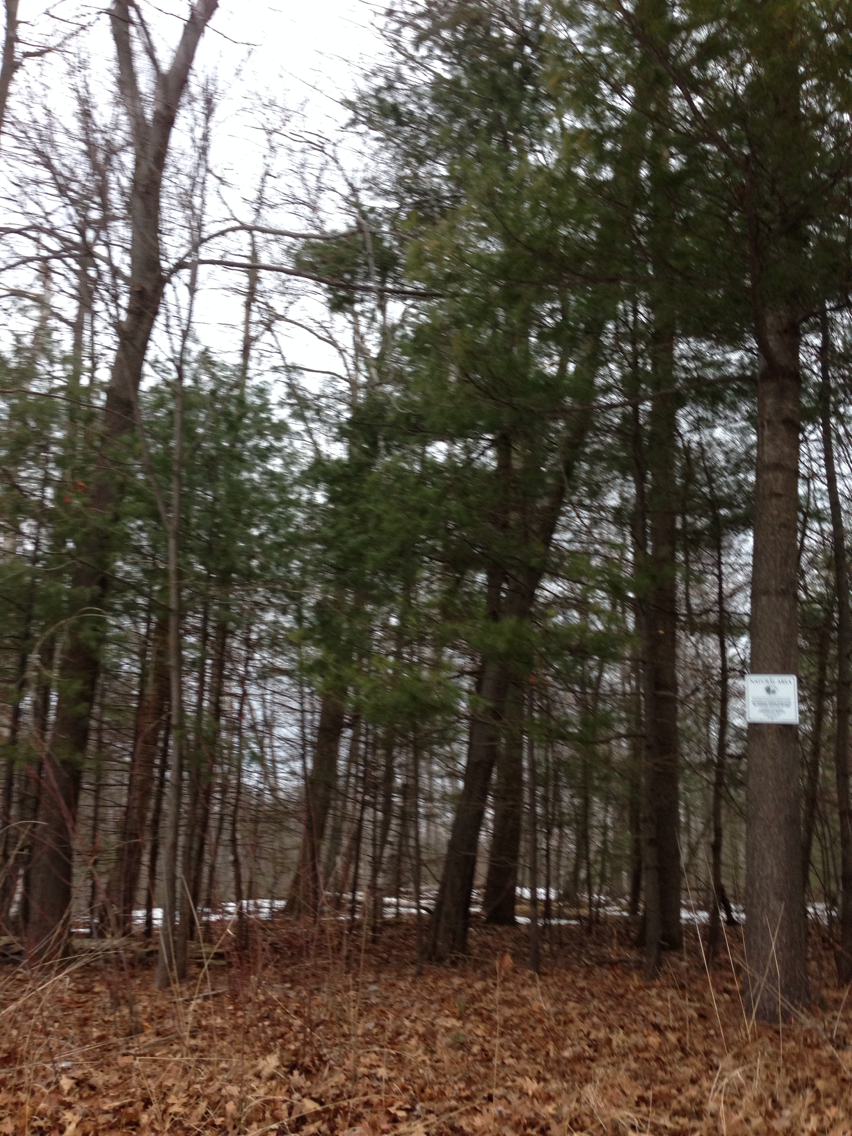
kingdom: Plantae
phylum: Tracheophyta
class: Pinopsida
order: Pinales
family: Pinaceae
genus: Pinus
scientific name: Pinus strobus
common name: Weymouth pine
